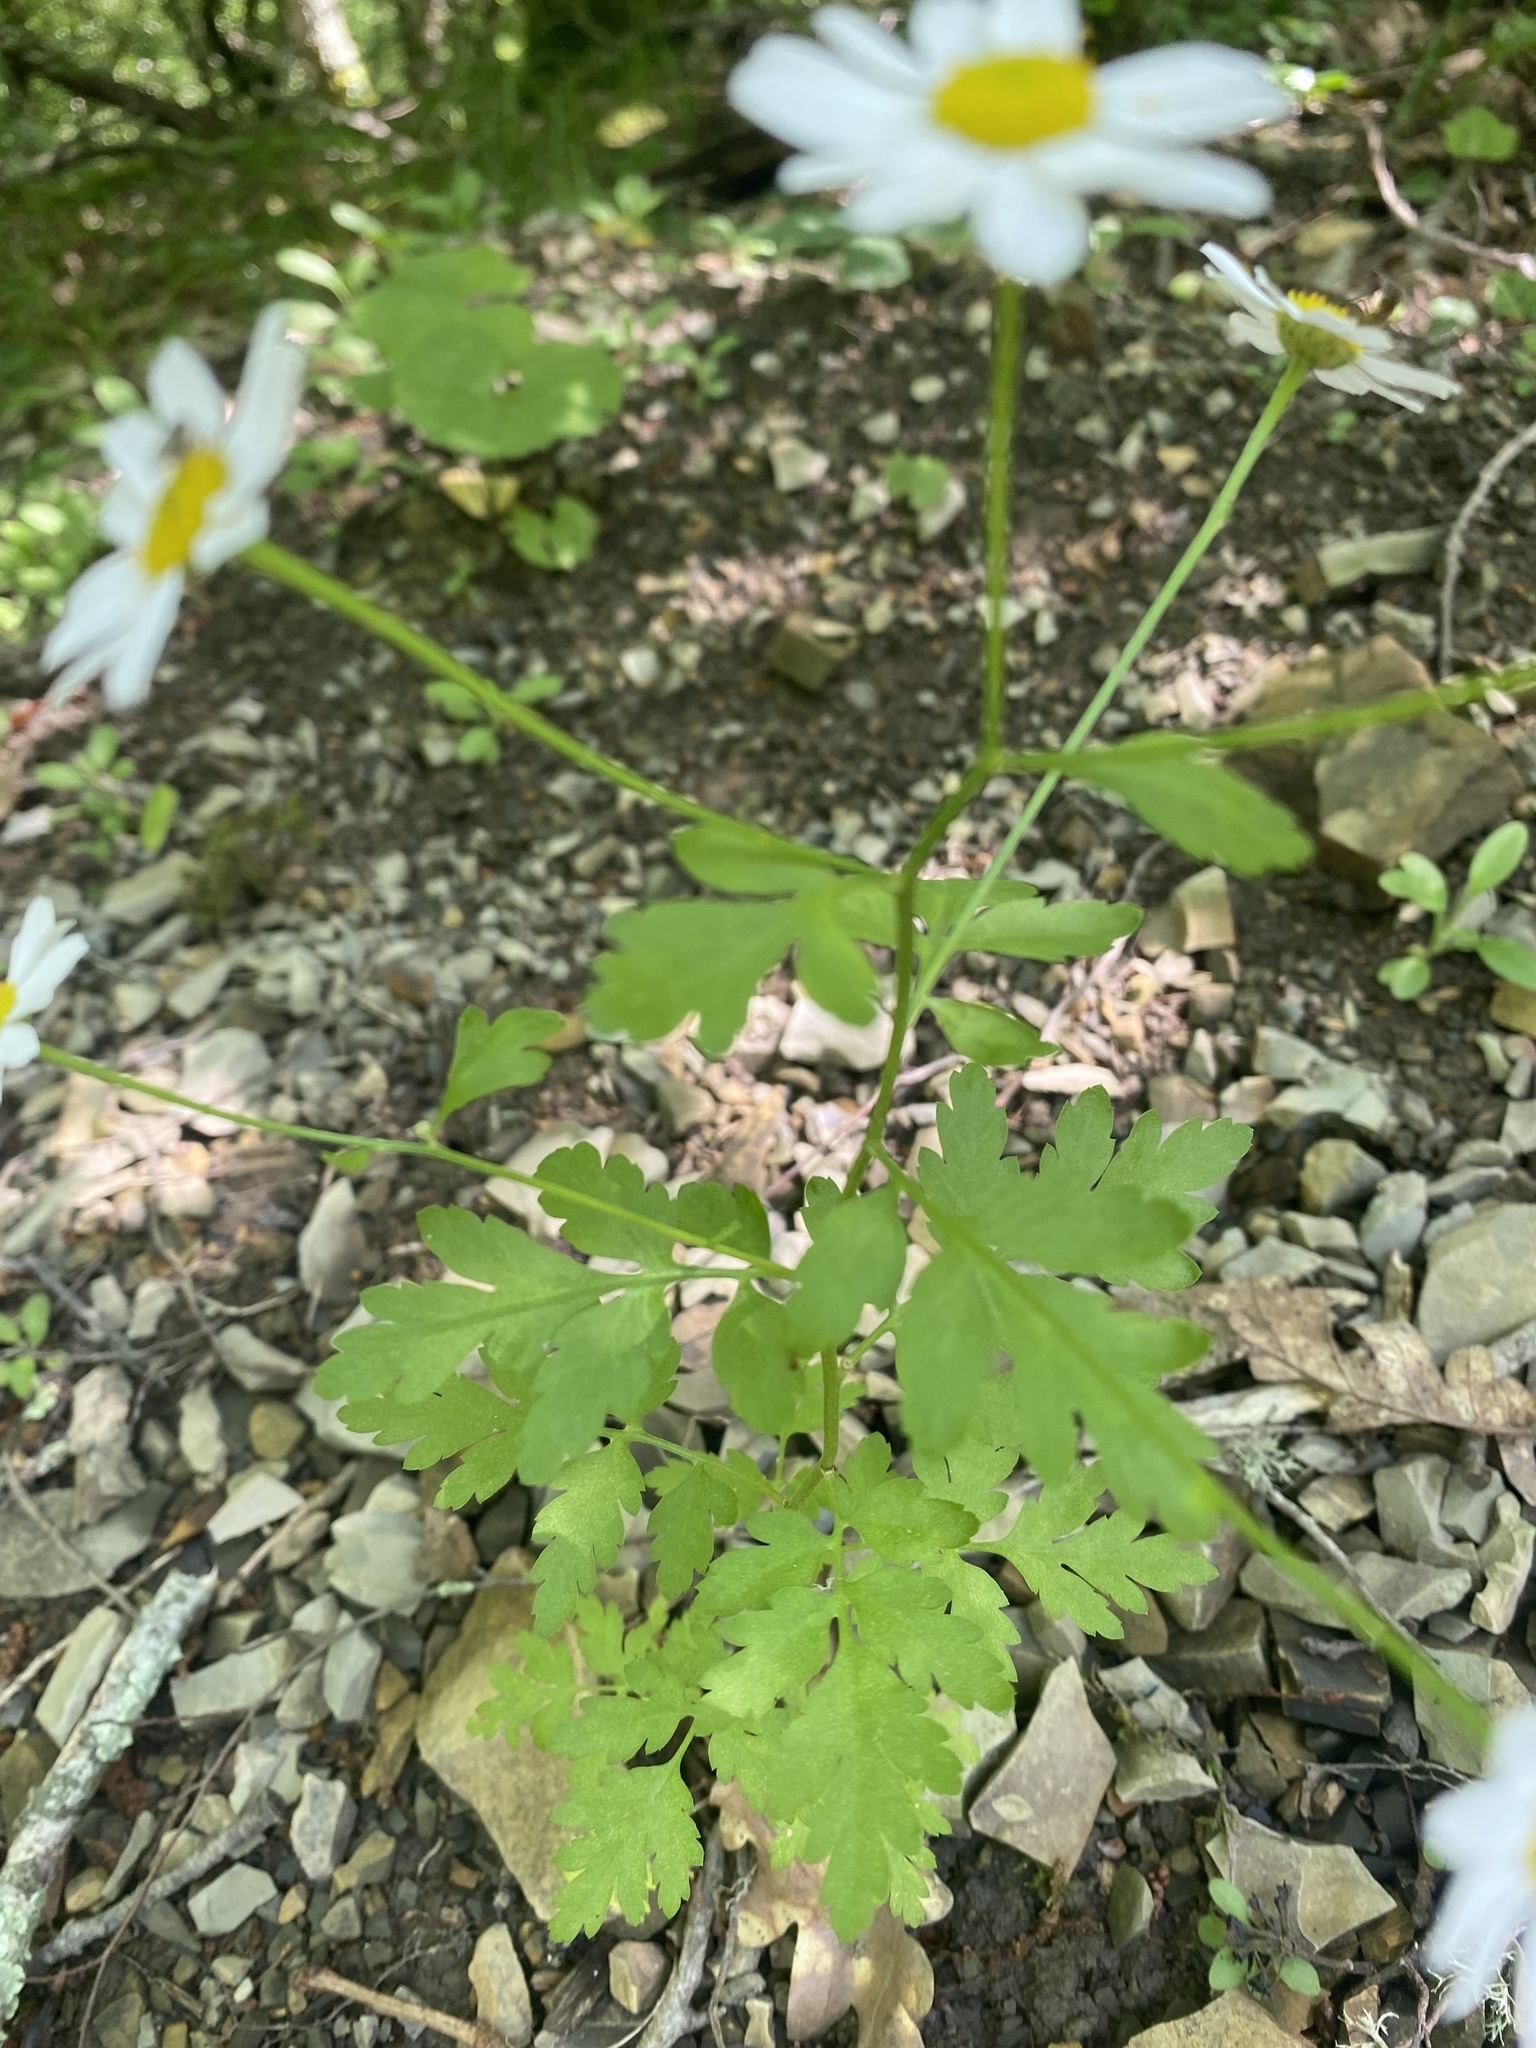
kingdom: Plantae
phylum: Tracheophyta
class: Magnoliopsida
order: Asterales
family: Asteraceae
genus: Tanacetum
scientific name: Tanacetum partheniifolium
